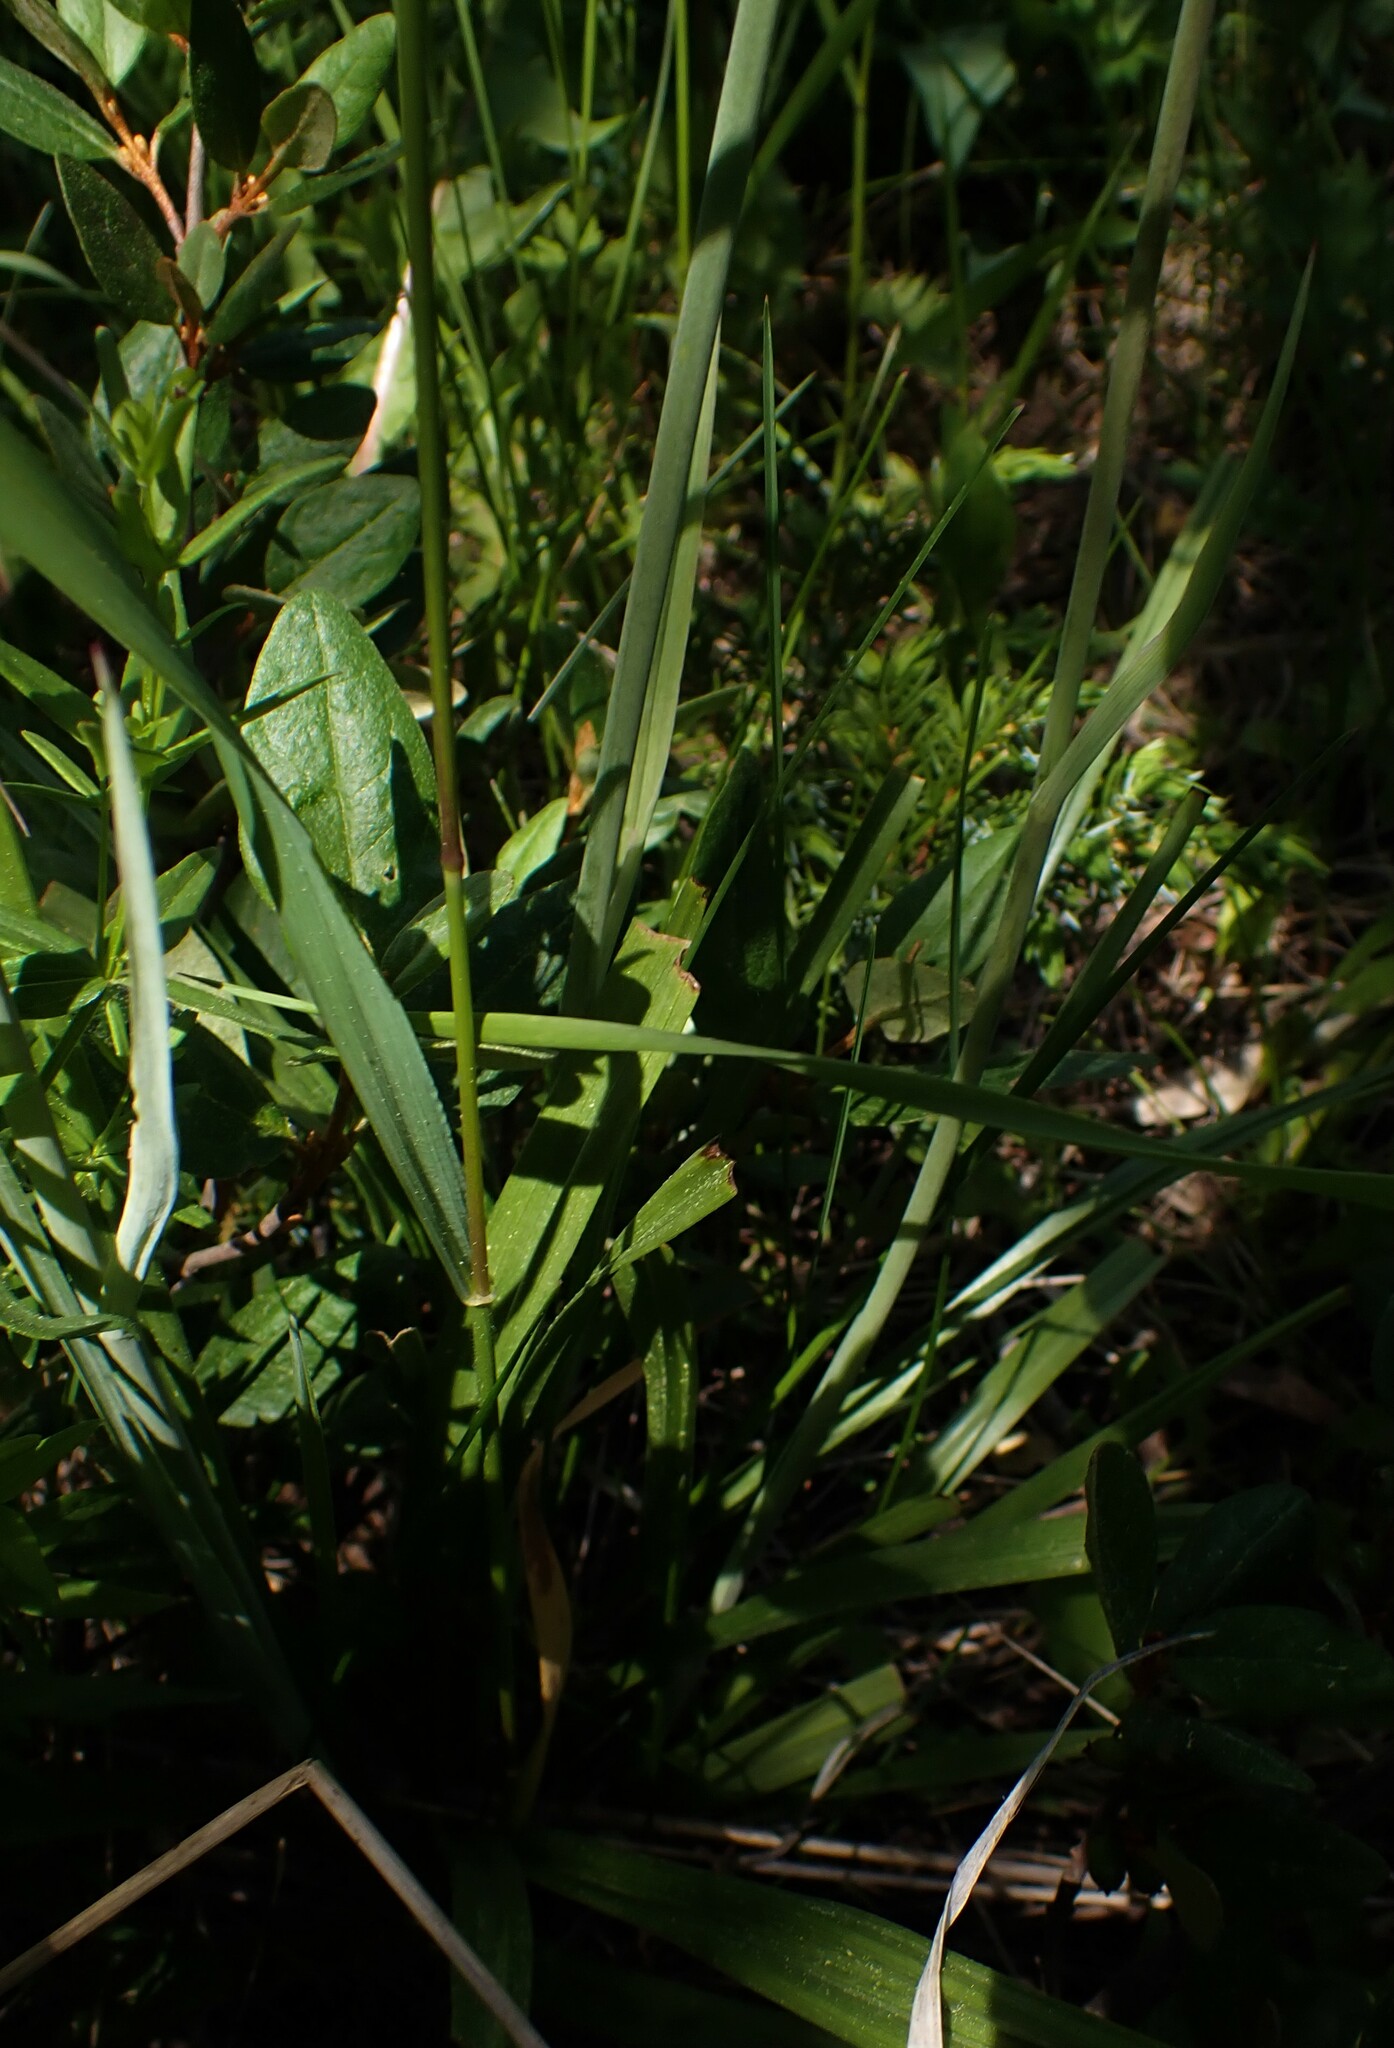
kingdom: Plantae
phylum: Tracheophyta
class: Liliopsida
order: Liliales
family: Melanthiaceae
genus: Anticlea
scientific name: Anticlea elegans
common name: Mountain death camas
